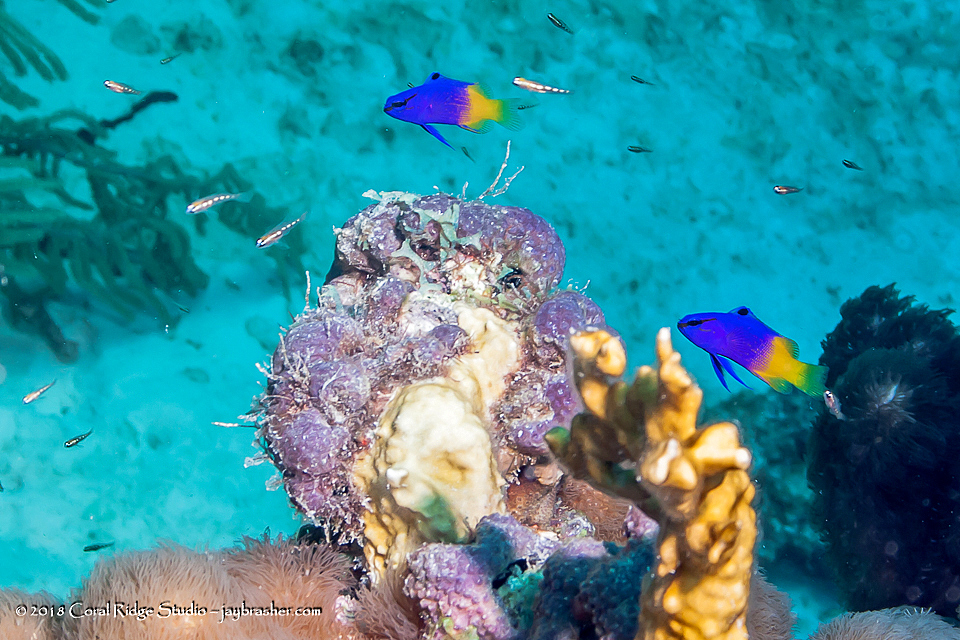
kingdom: Animalia
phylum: Chordata
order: Perciformes
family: Grammatidae
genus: Gramma
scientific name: Gramma loreto
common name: Fairy basslet
